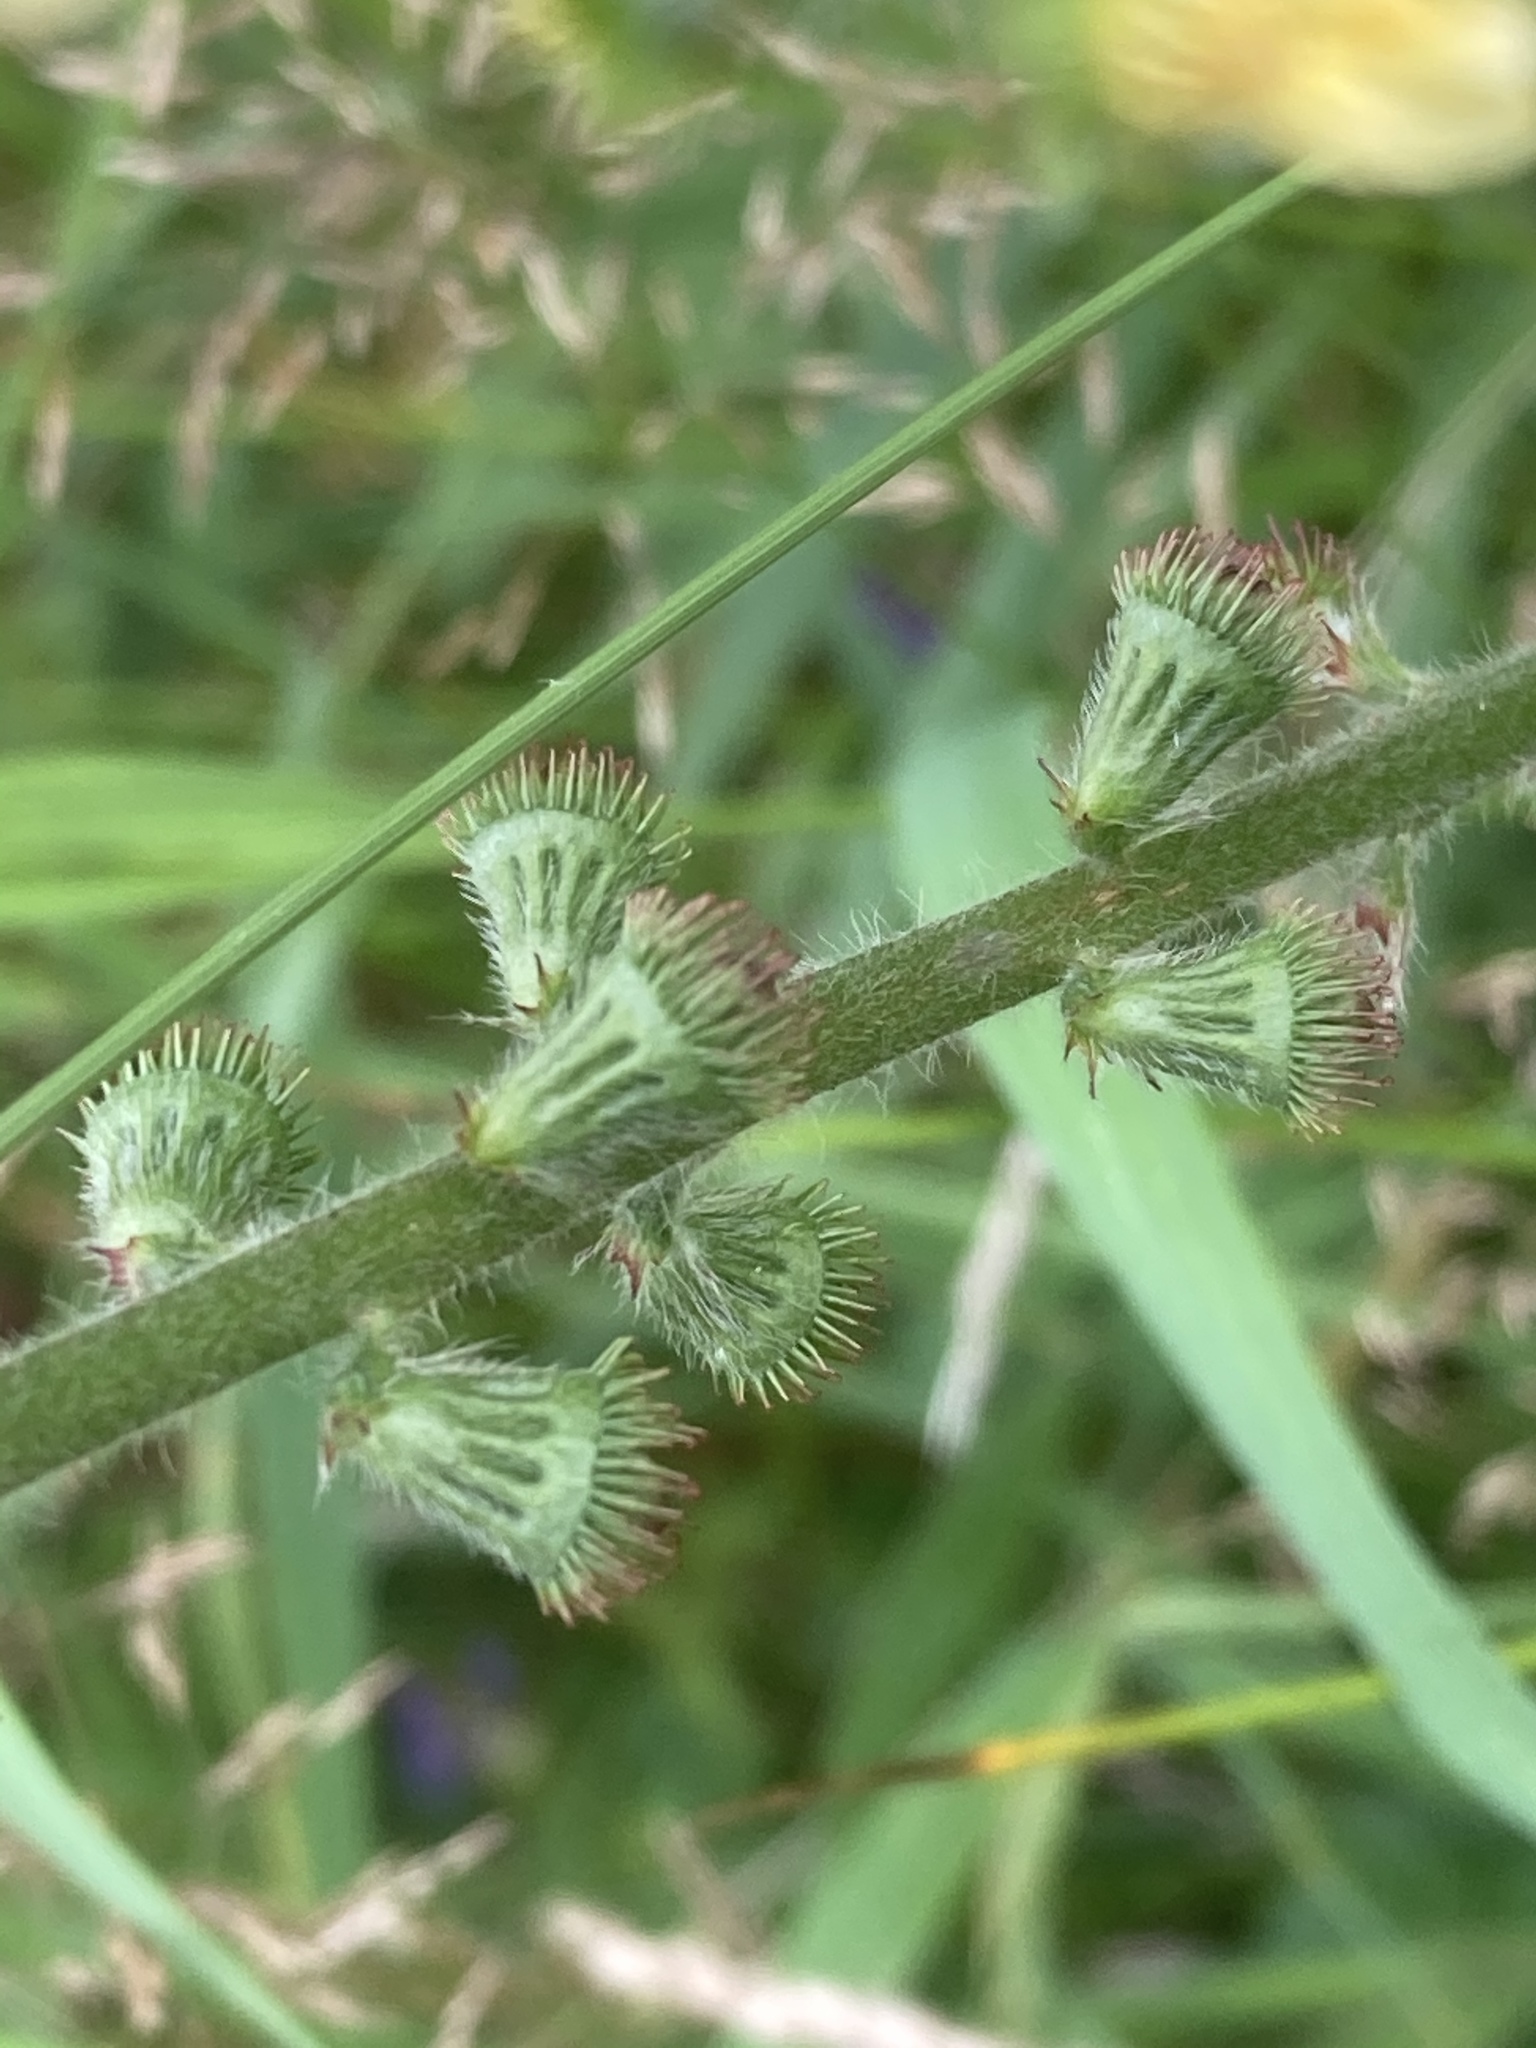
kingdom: Plantae
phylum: Tracheophyta
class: Magnoliopsida
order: Rosales
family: Rosaceae
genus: Agrimonia
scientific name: Agrimonia eupatoria
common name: Agrimony
